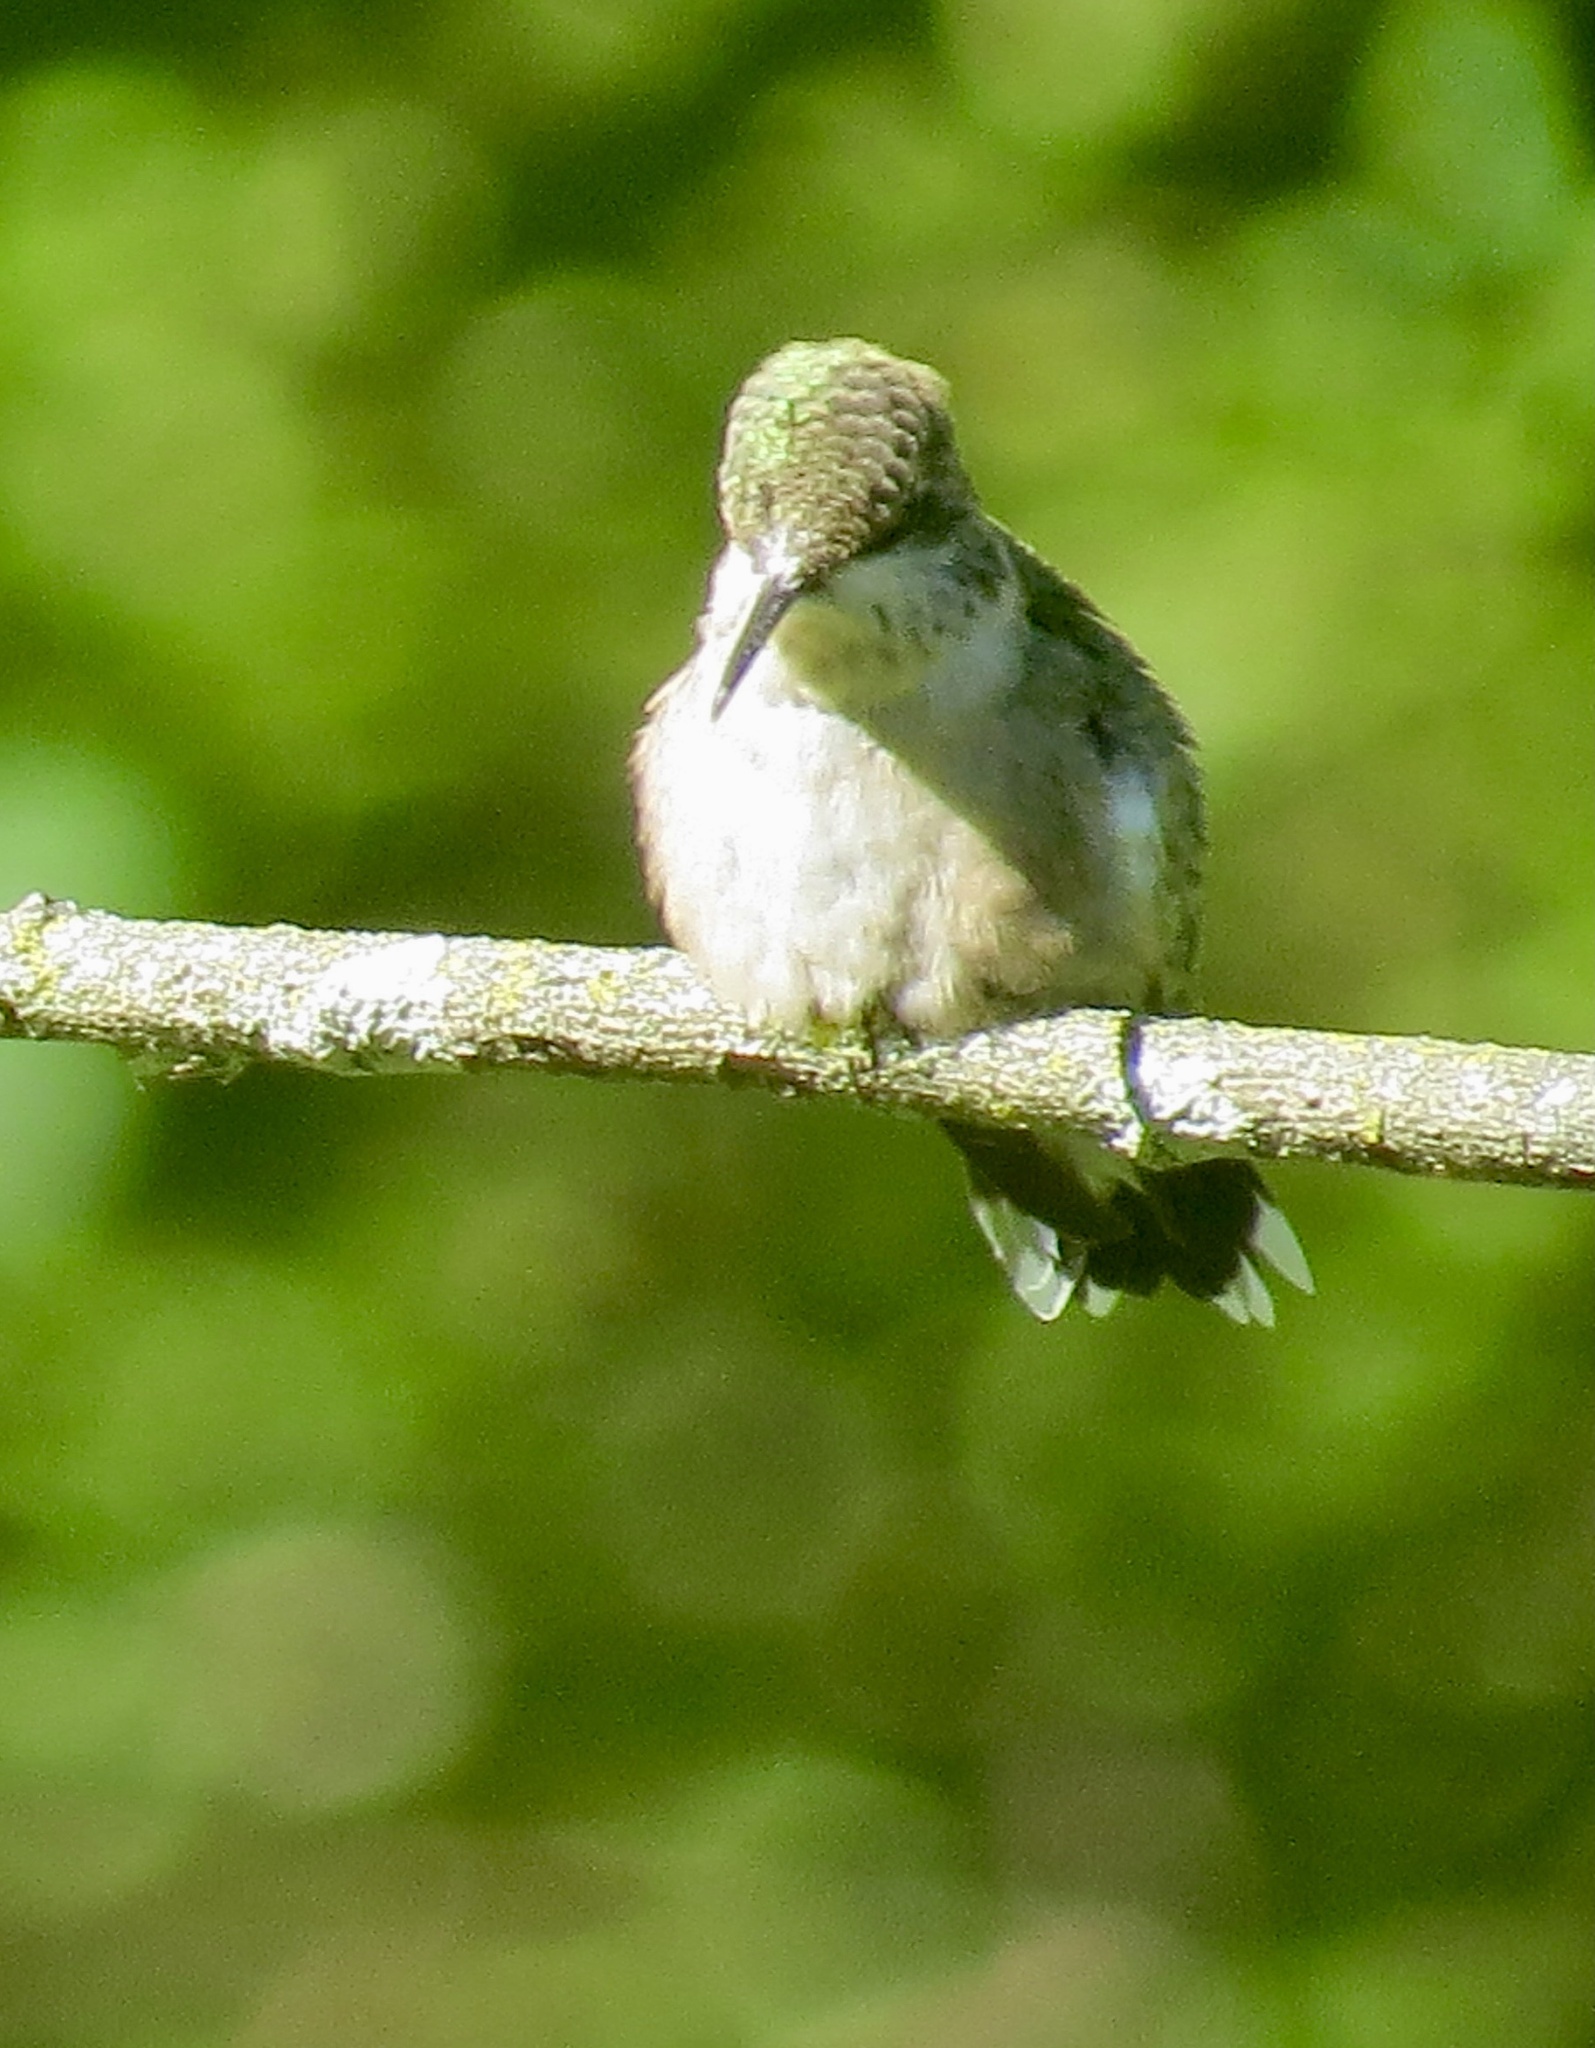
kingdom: Animalia
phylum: Chordata
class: Aves
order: Apodiformes
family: Trochilidae
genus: Archilochus
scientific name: Archilochus colubris
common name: Ruby-throated hummingbird
